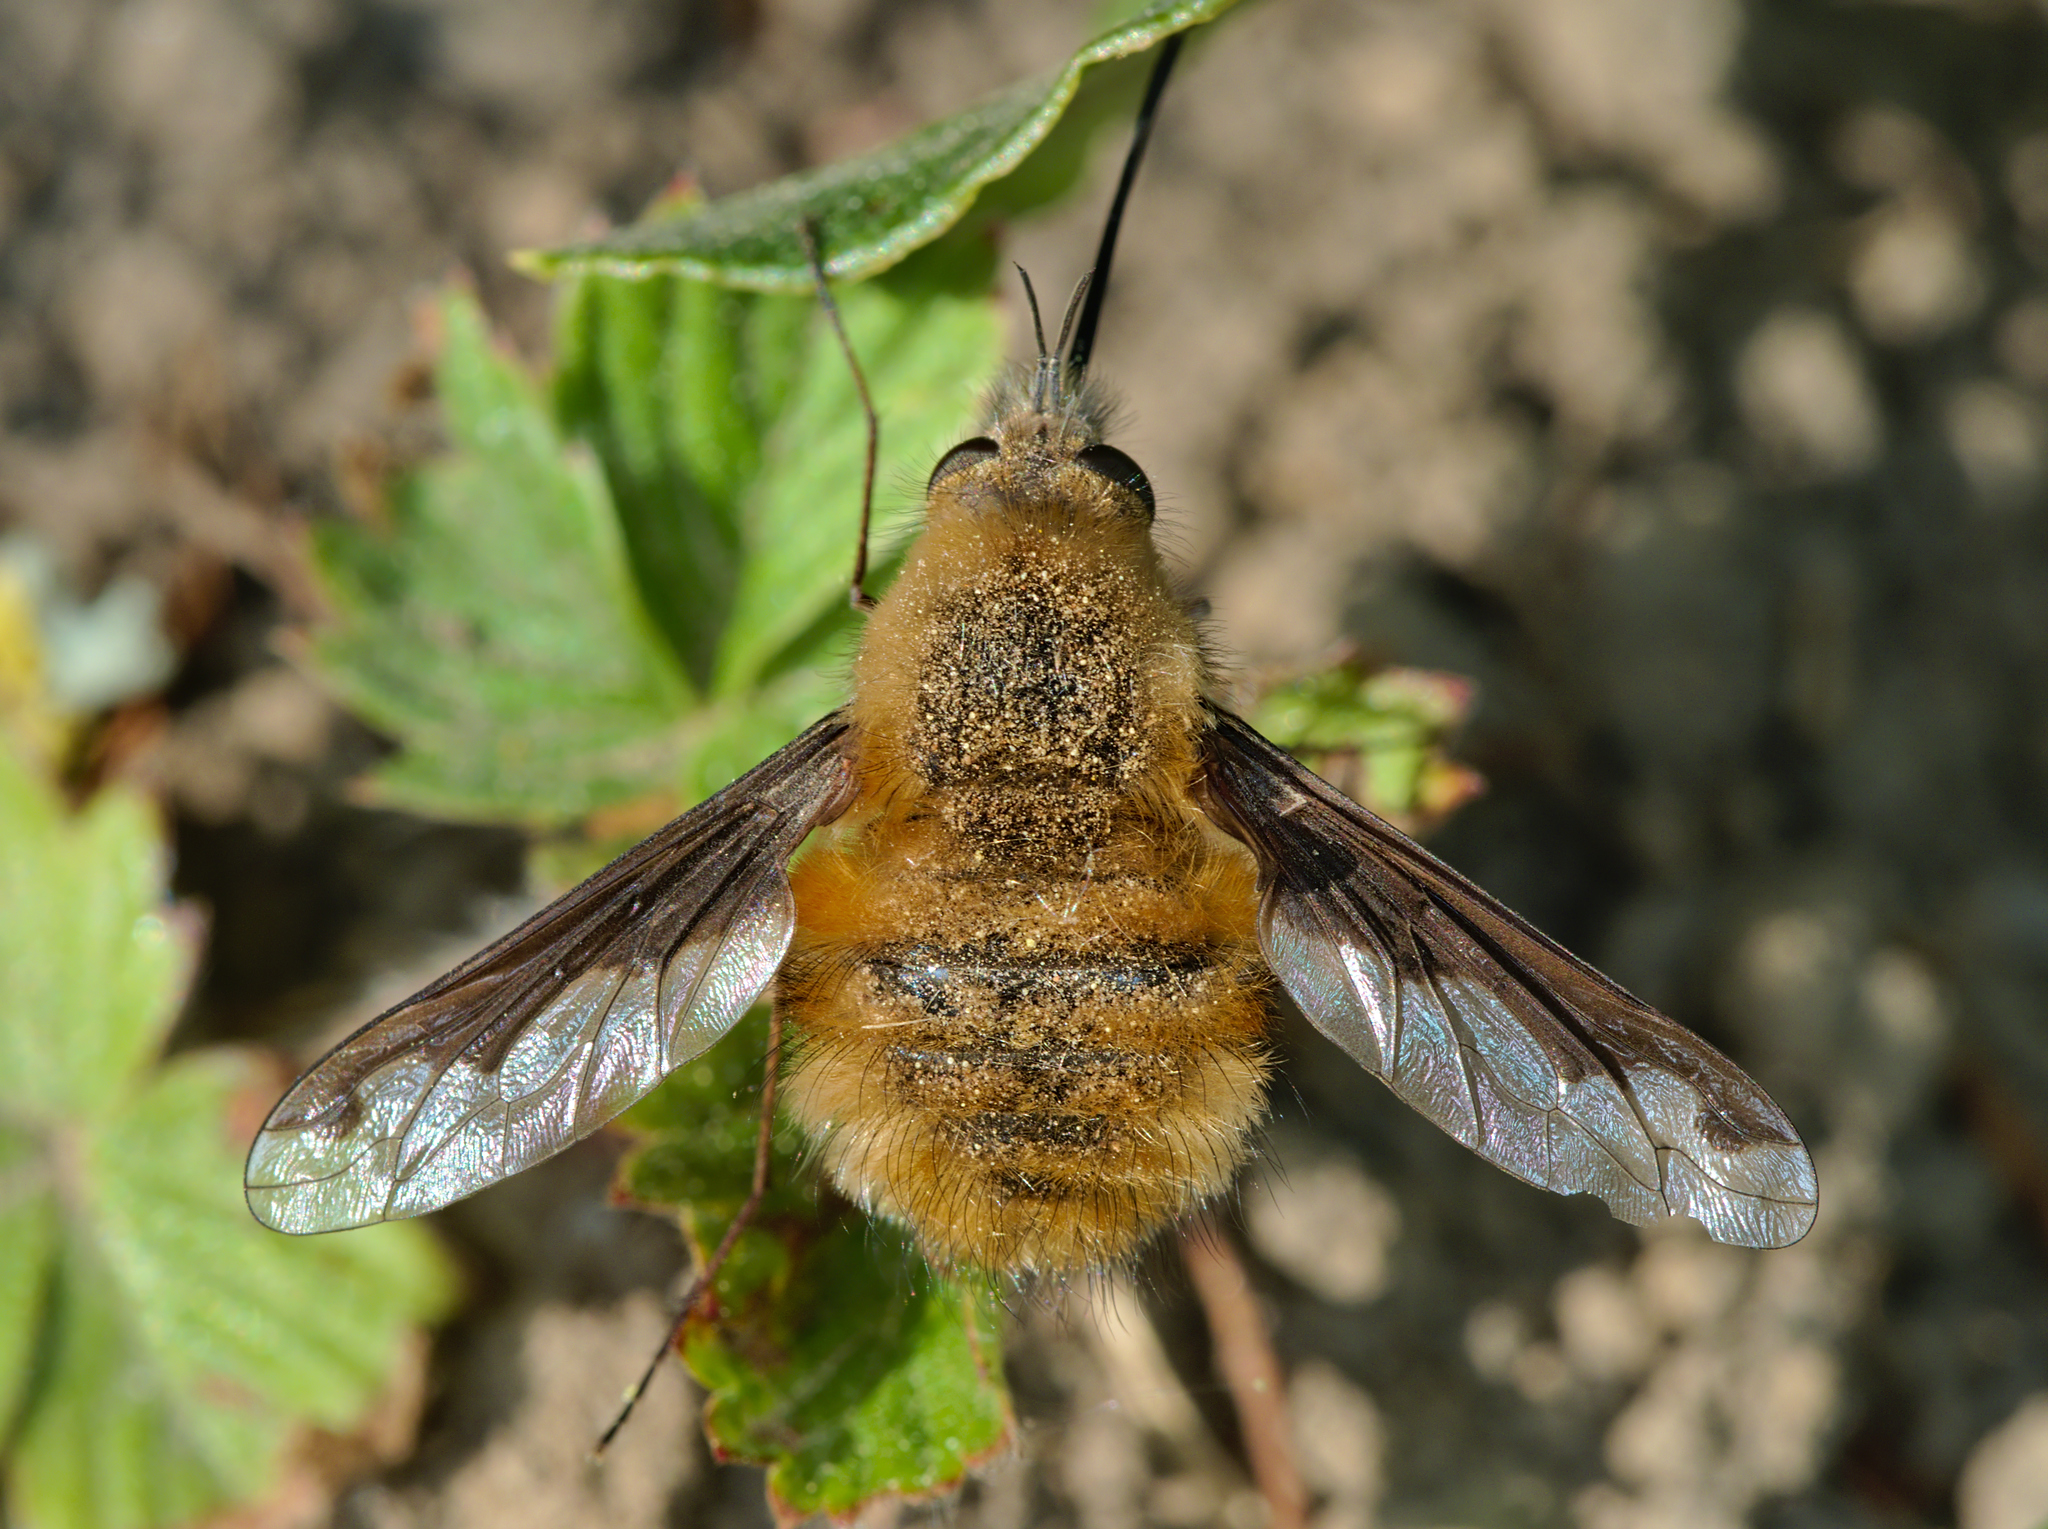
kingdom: Animalia
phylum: Arthropoda
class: Insecta
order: Diptera
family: Bombyliidae
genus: Bombylius
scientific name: Bombylius major
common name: Bee fly
